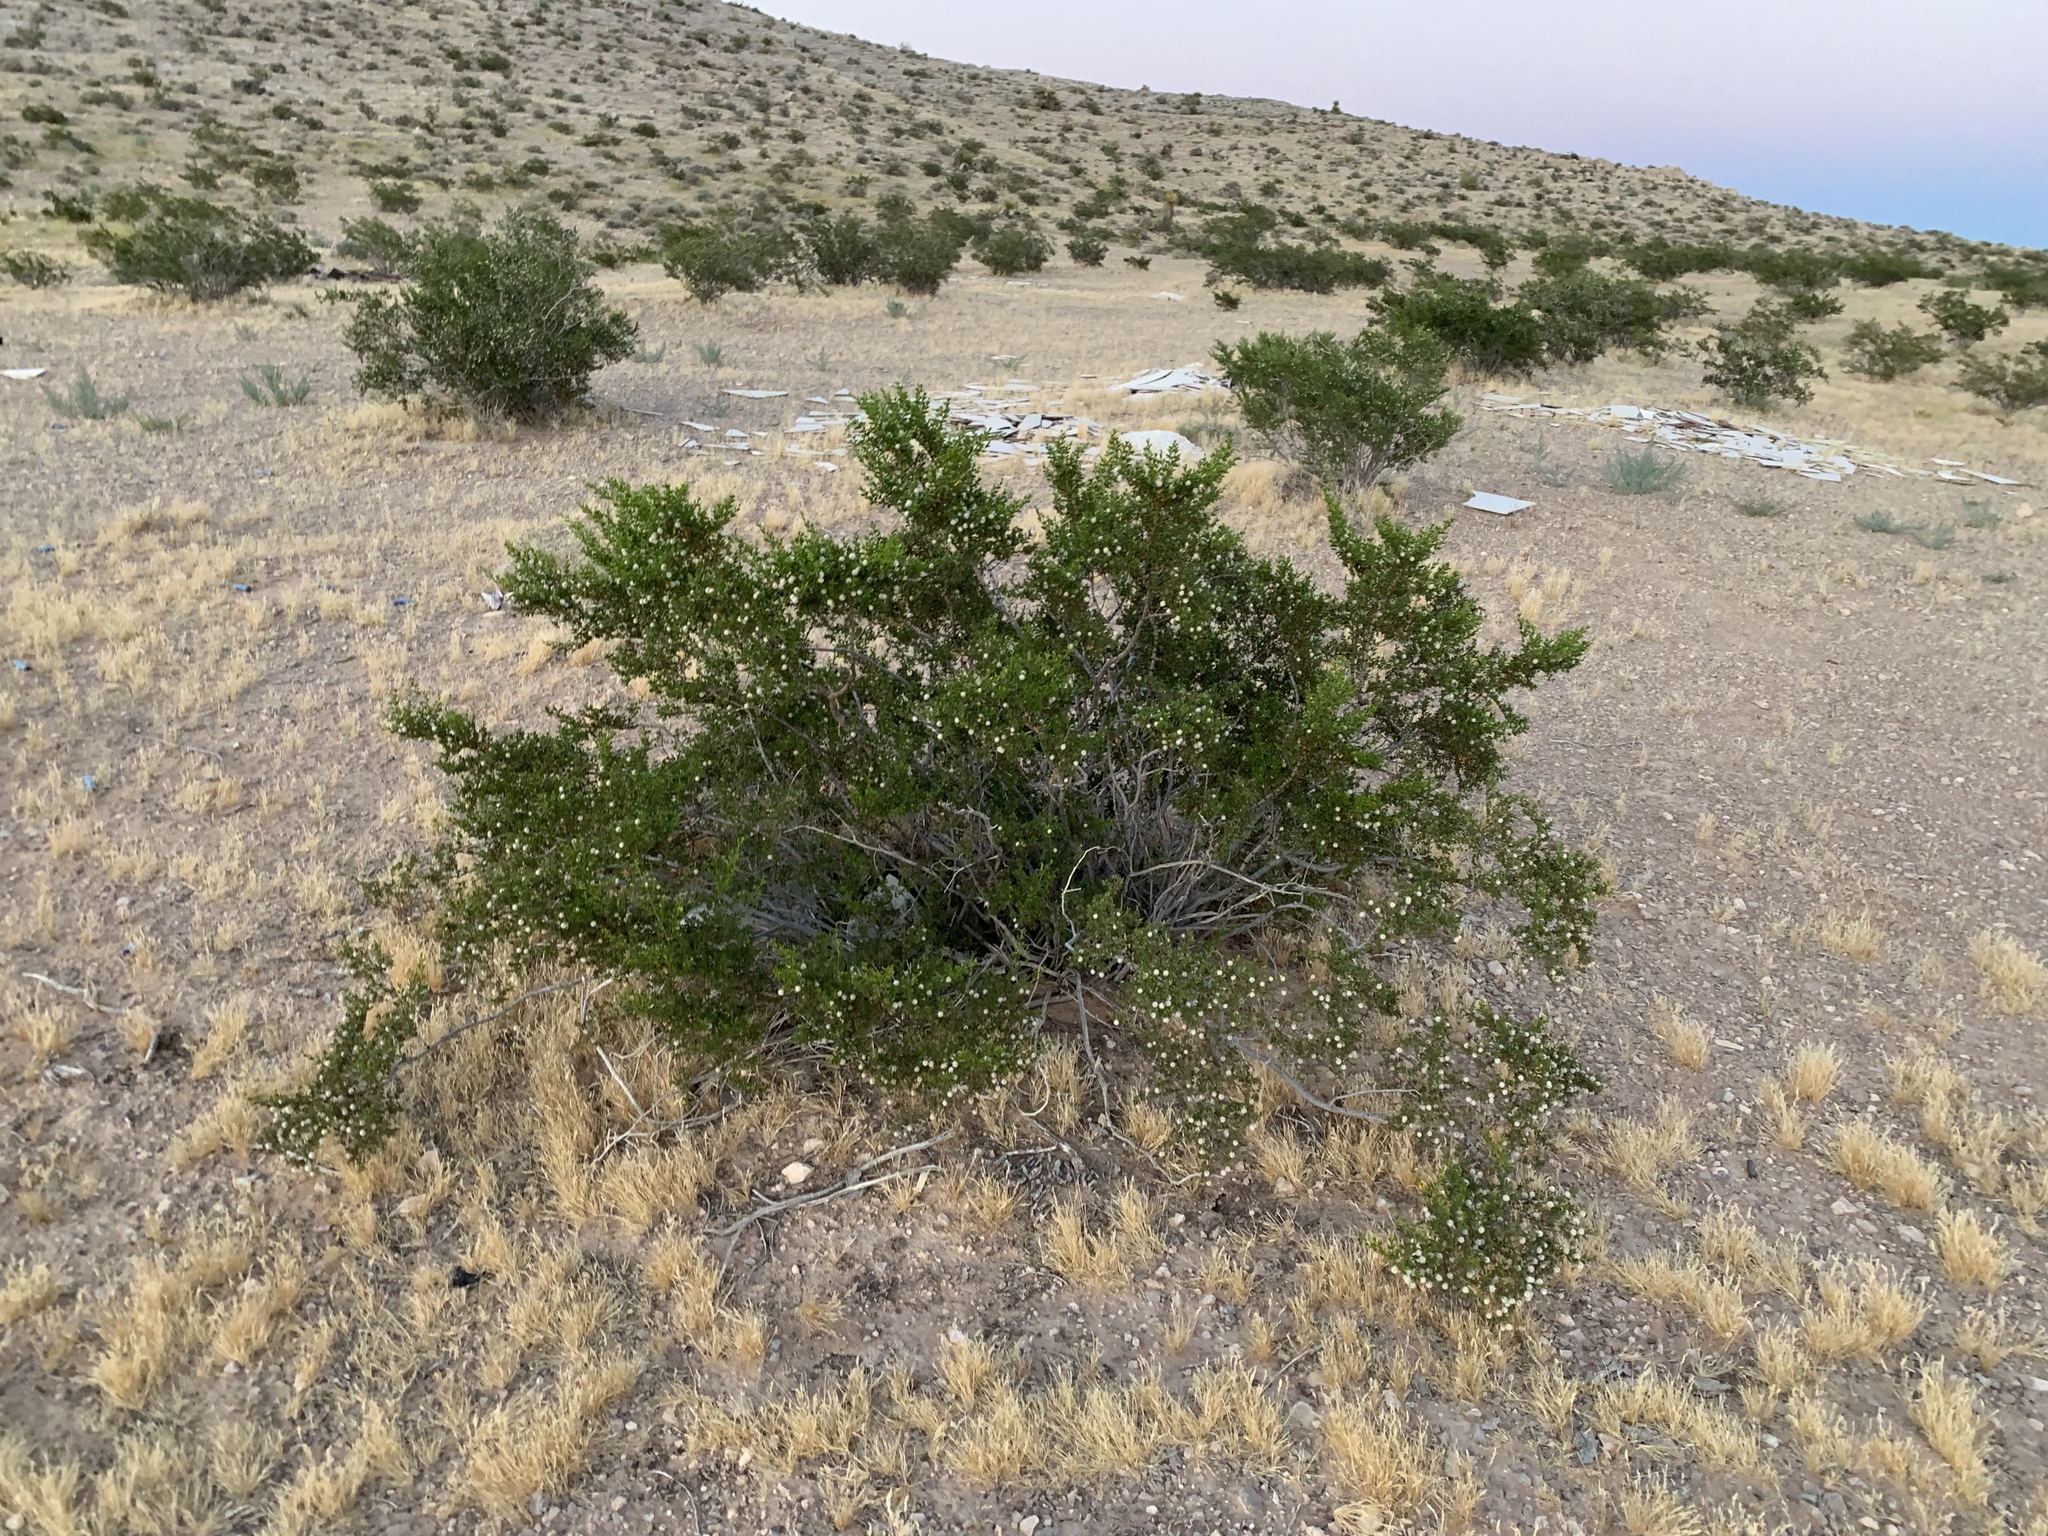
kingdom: Plantae
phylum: Tracheophyta
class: Magnoliopsida
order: Zygophyllales
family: Zygophyllaceae
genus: Larrea
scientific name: Larrea tridentata
